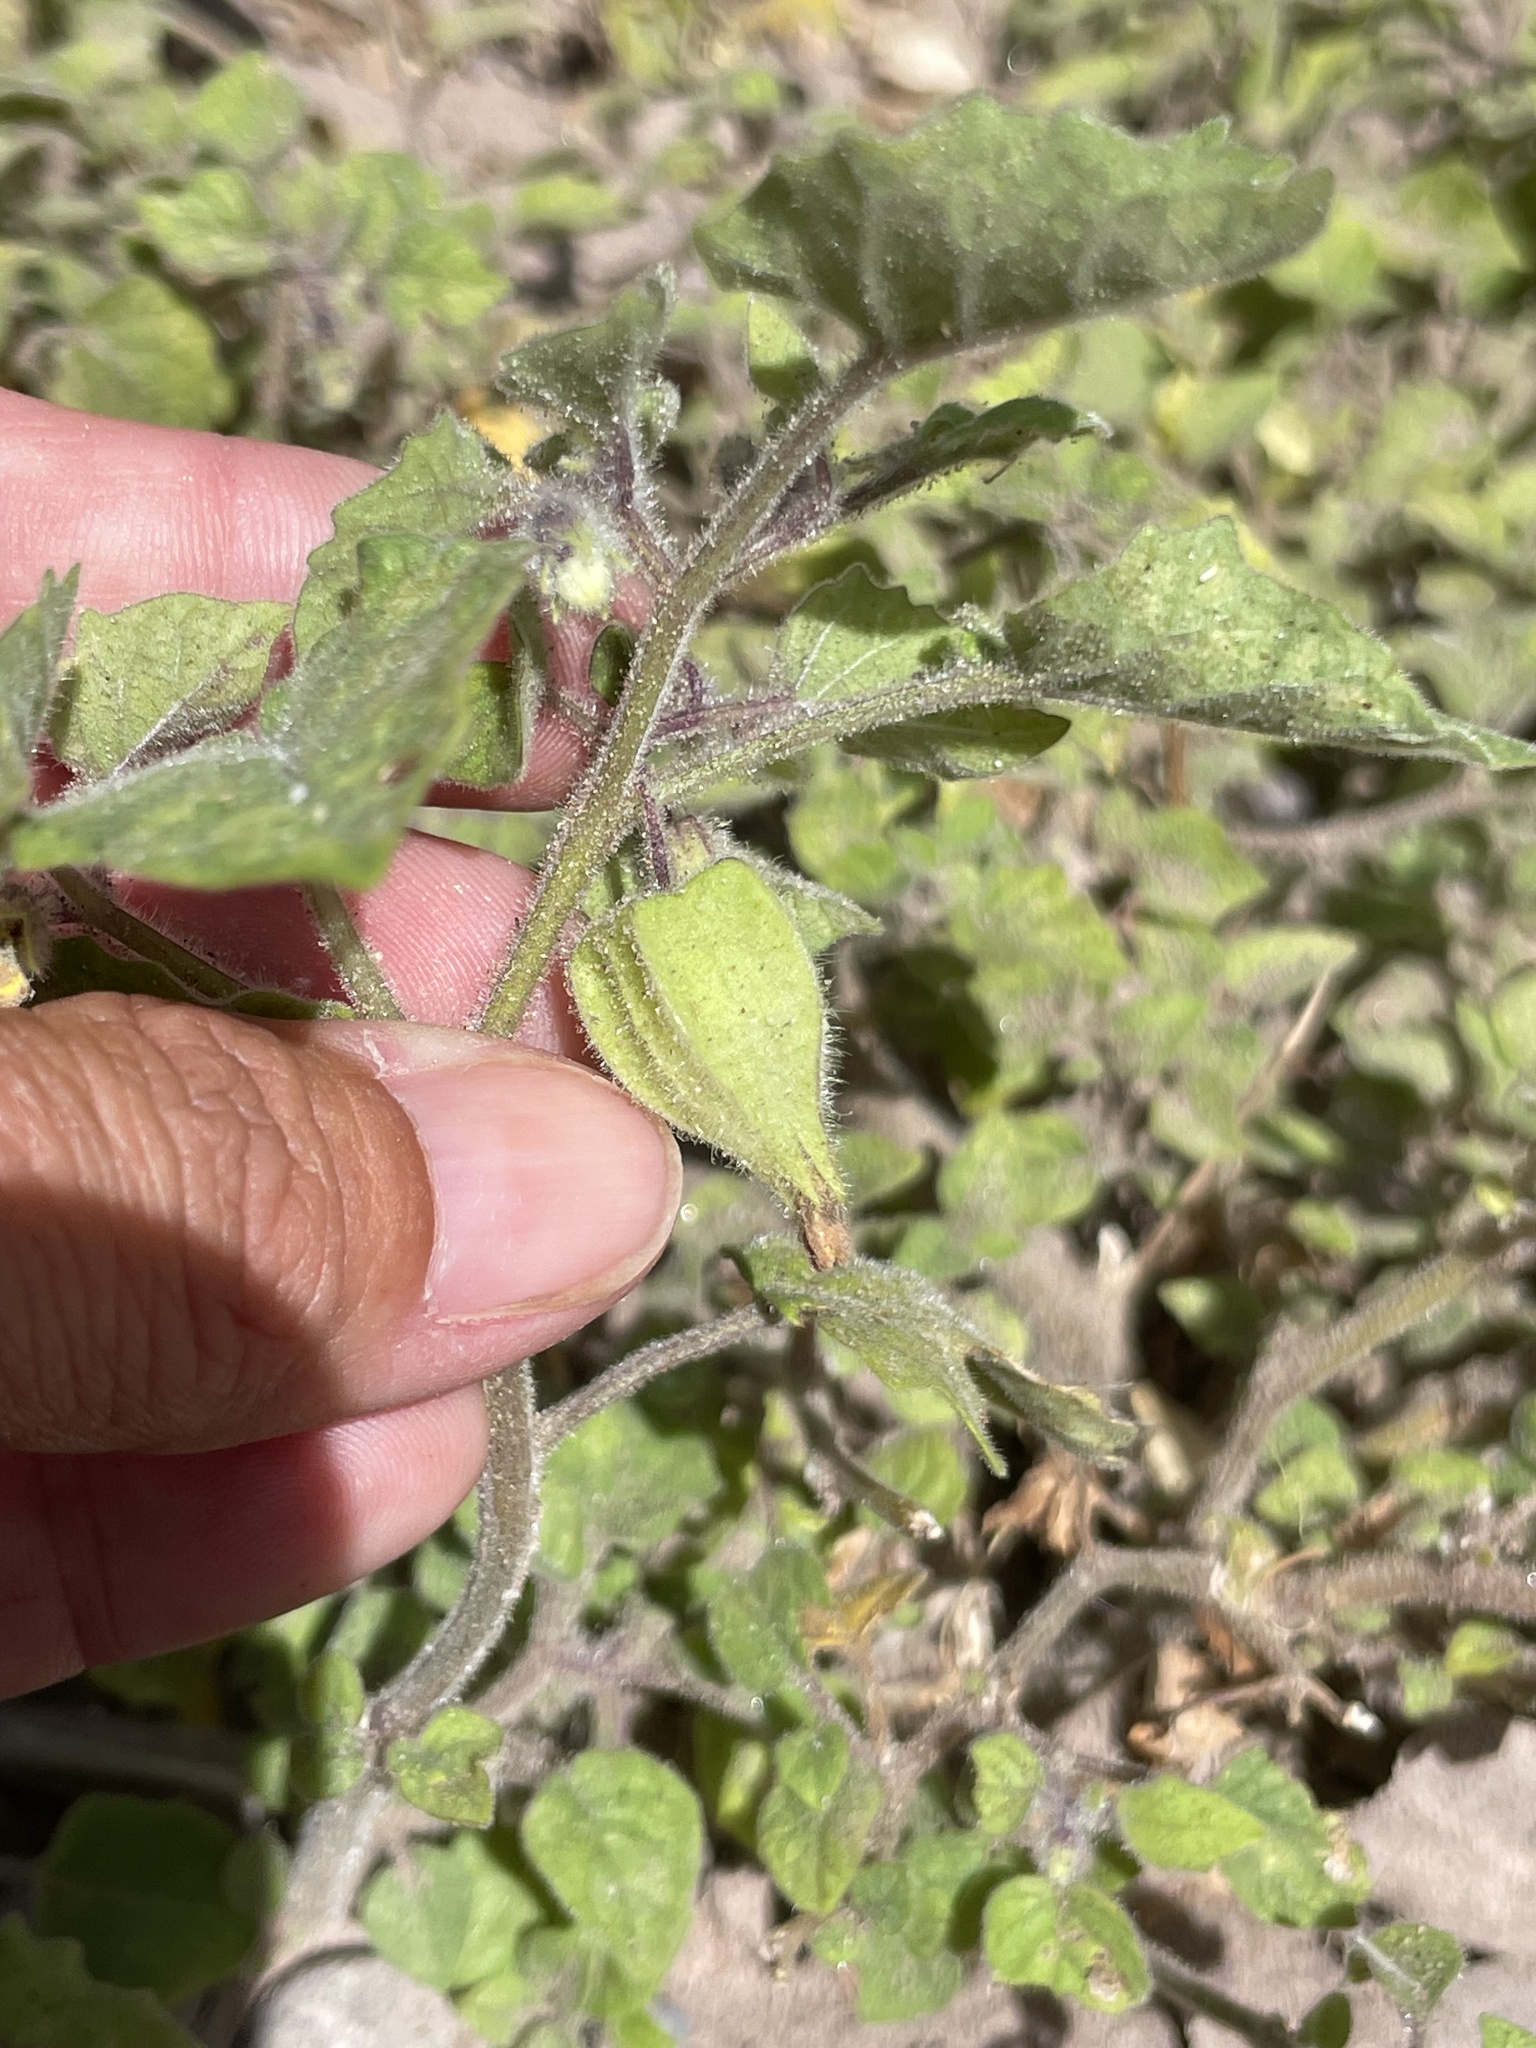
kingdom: Plantae
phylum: Tracheophyta
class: Magnoliopsida
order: Solanales
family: Solanaceae
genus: Physalis
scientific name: Physalis pubescens
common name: Downy ground-cherry
